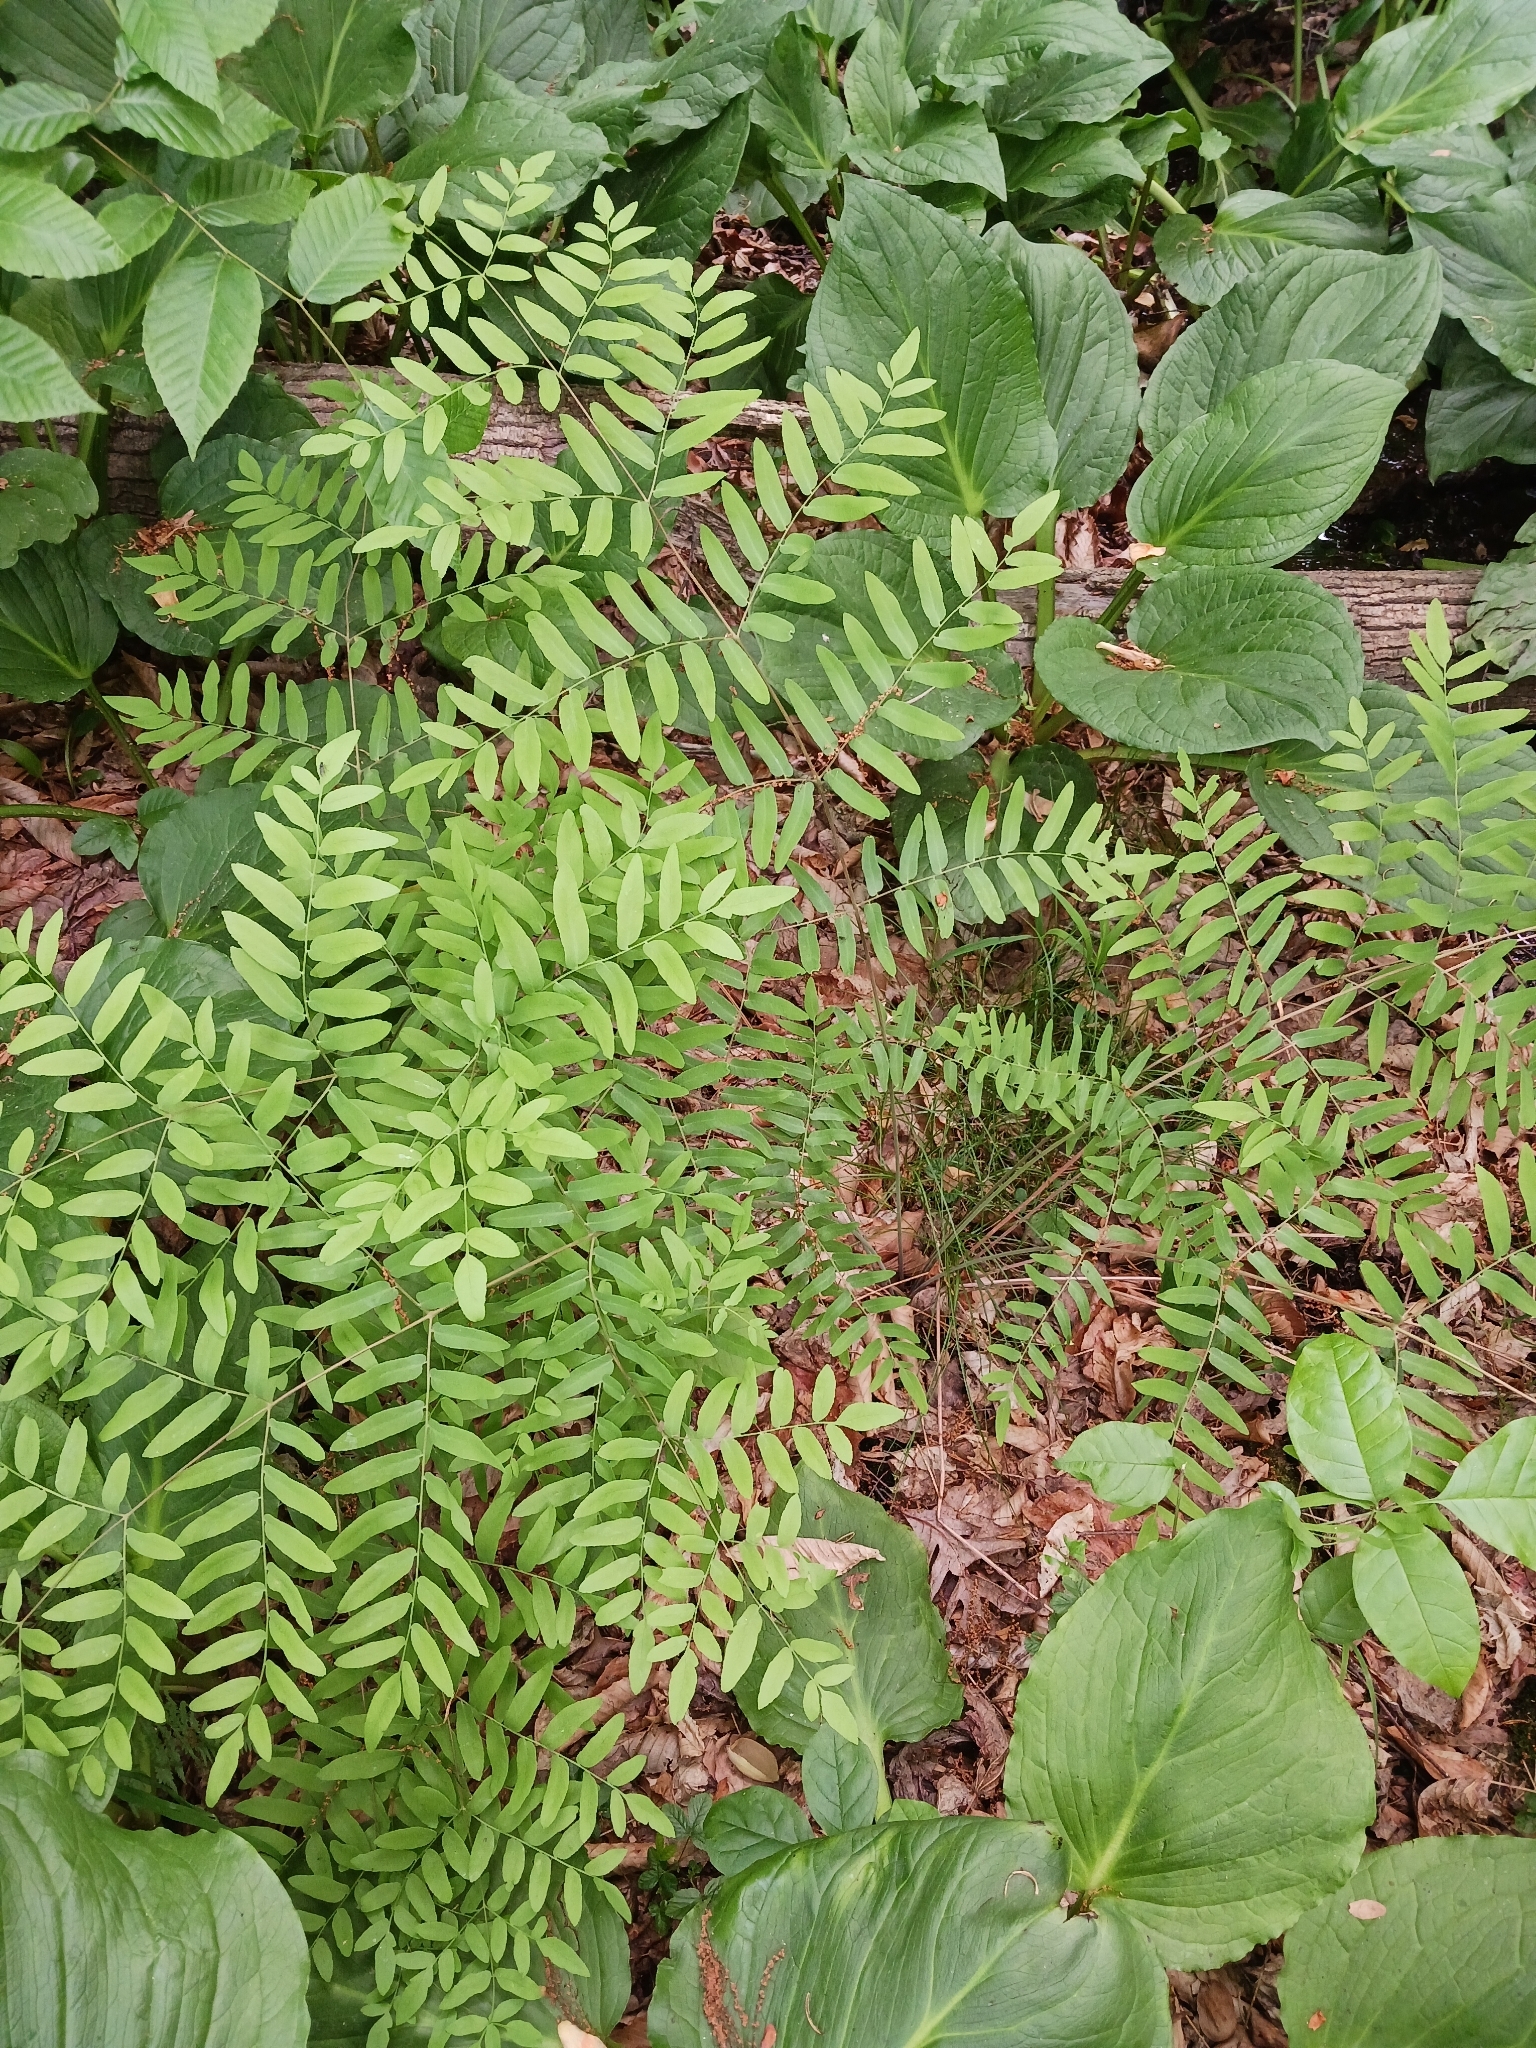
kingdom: Plantae
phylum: Tracheophyta
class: Polypodiopsida
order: Osmundales
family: Osmundaceae
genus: Osmunda
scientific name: Osmunda spectabilis
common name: American royal fern
